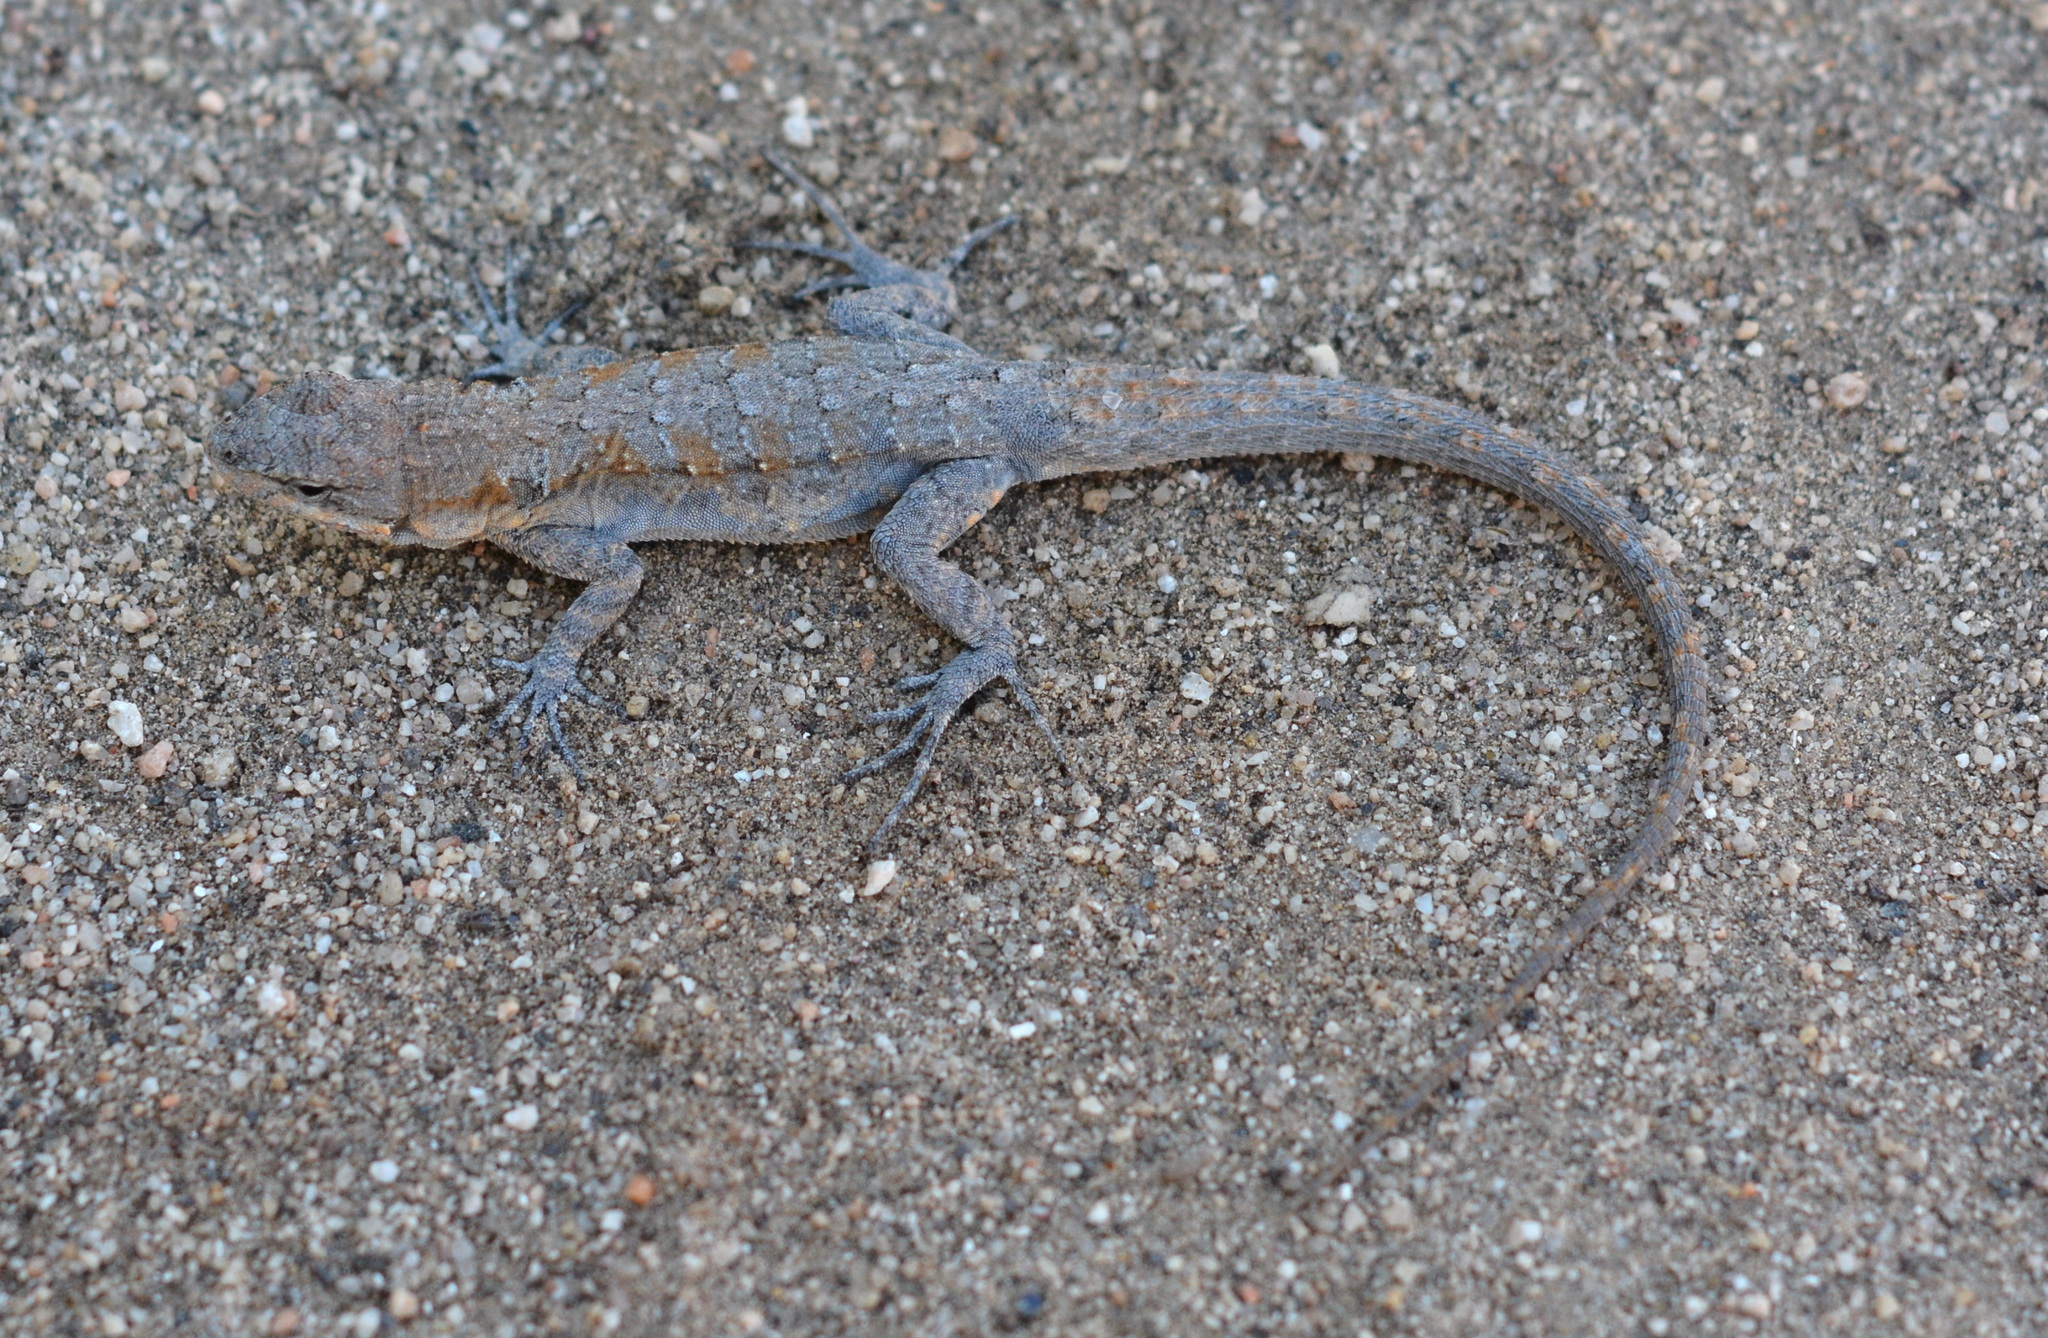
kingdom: Animalia
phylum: Chordata
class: Squamata
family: Phrynosomatidae
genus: Urosaurus
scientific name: Urosaurus nigricauda
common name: Baja california brush lizard
